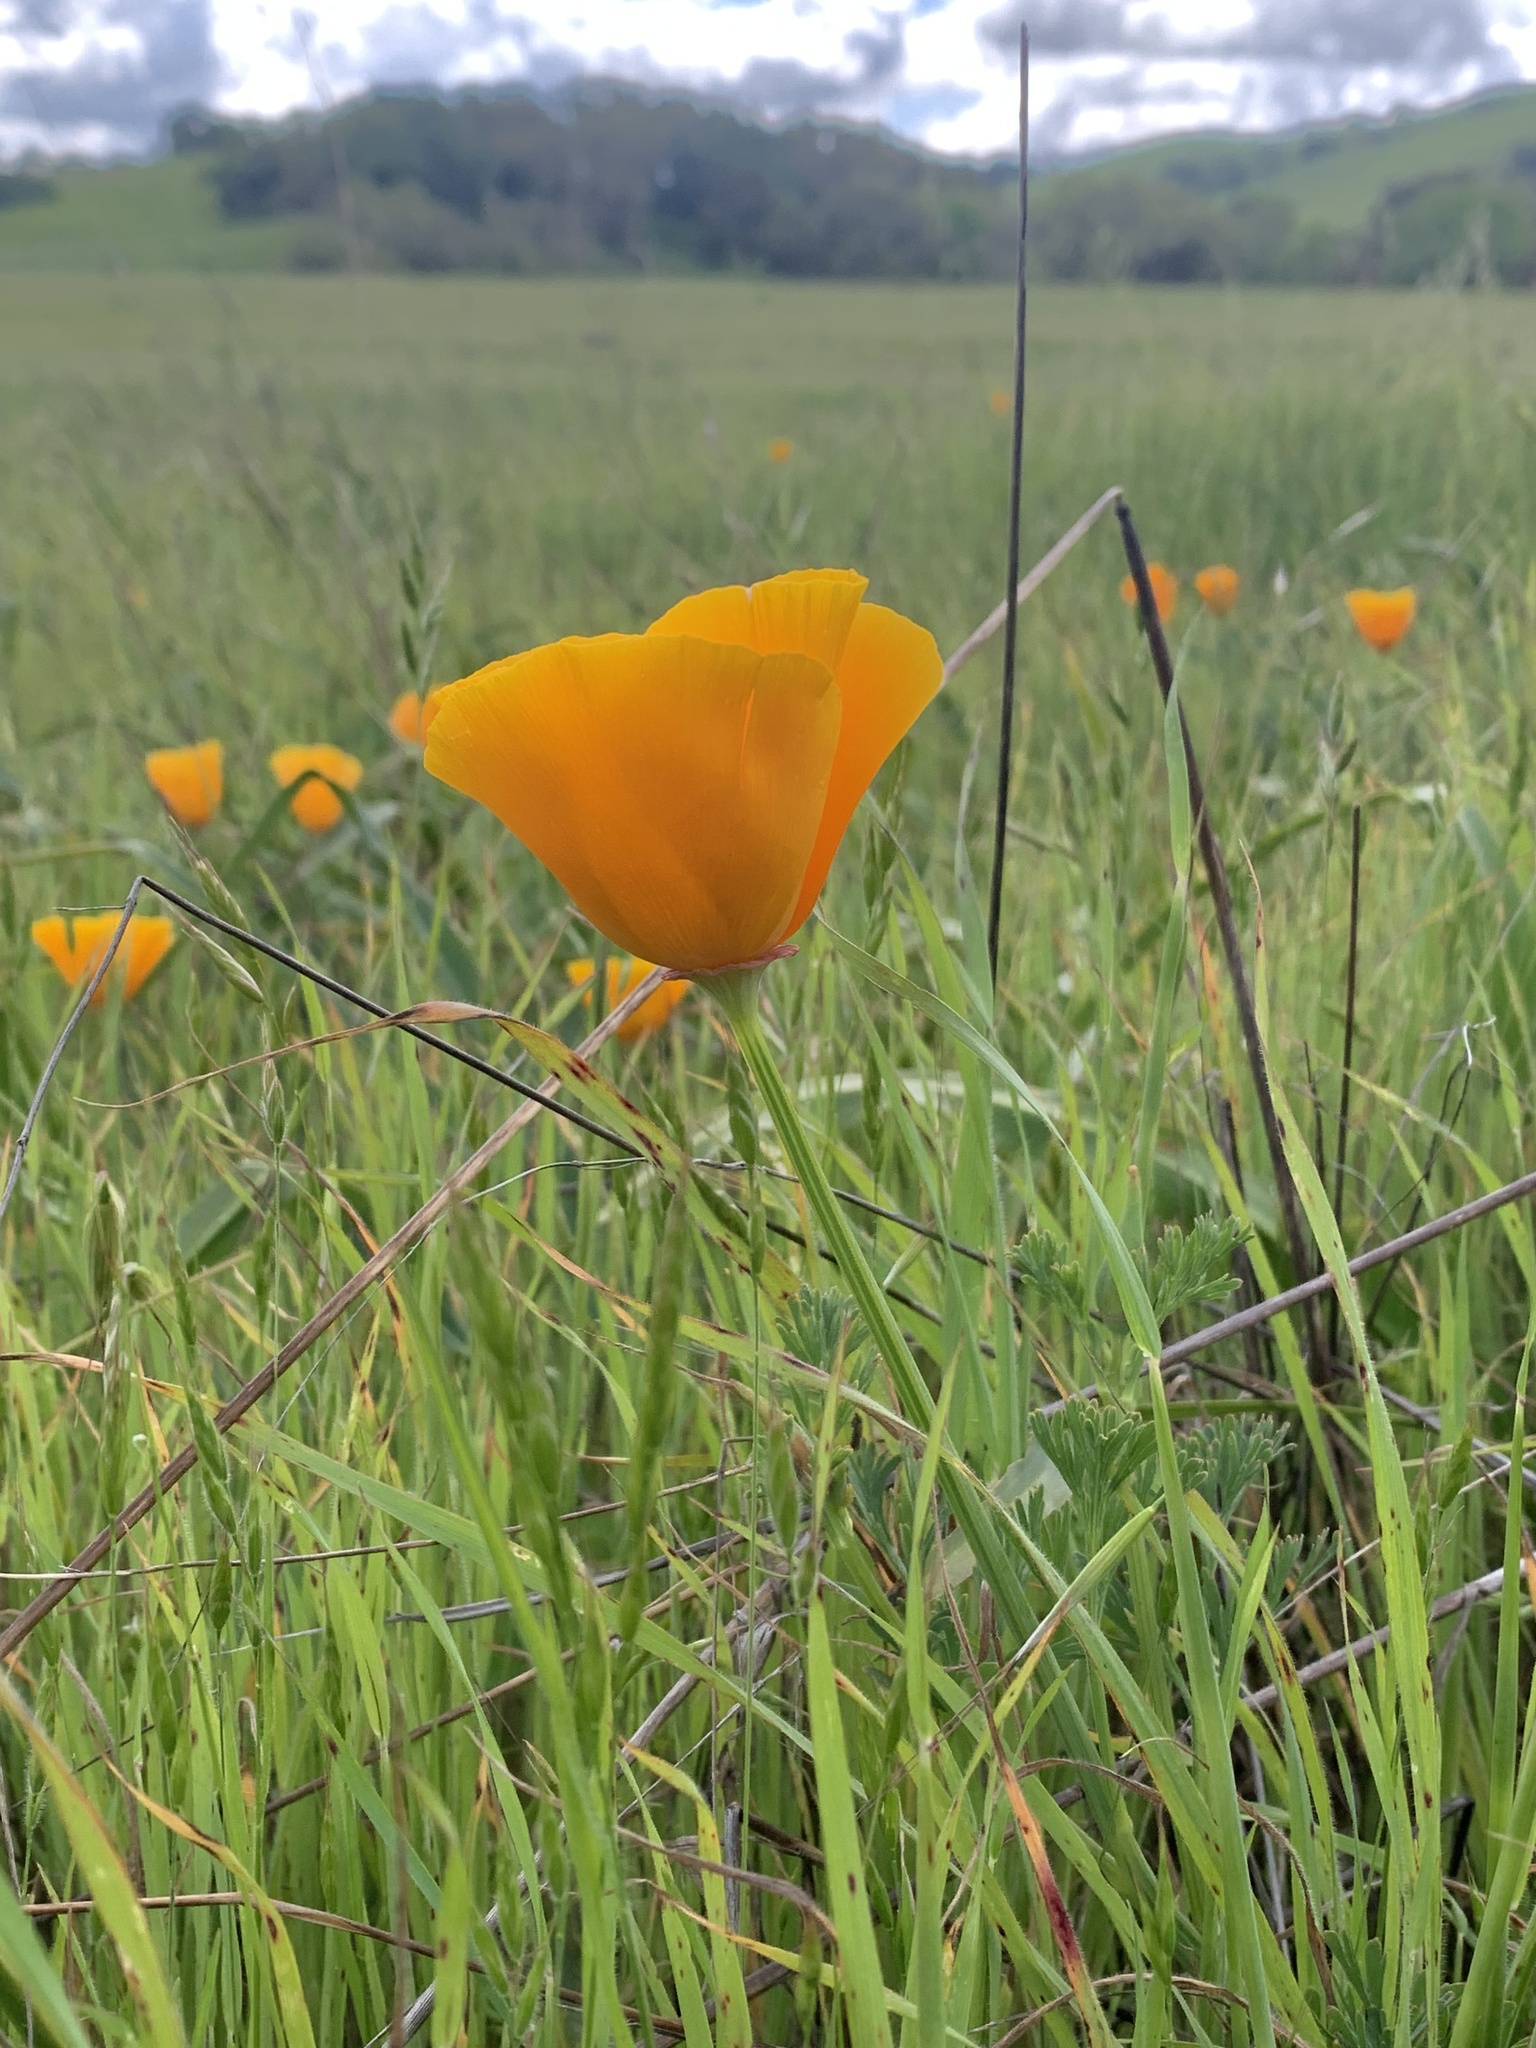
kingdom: Plantae
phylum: Tracheophyta
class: Magnoliopsida
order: Ranunculales
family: Papaveraceae
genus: Eschscholzia
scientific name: Eschscholzia californica
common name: California poppy
